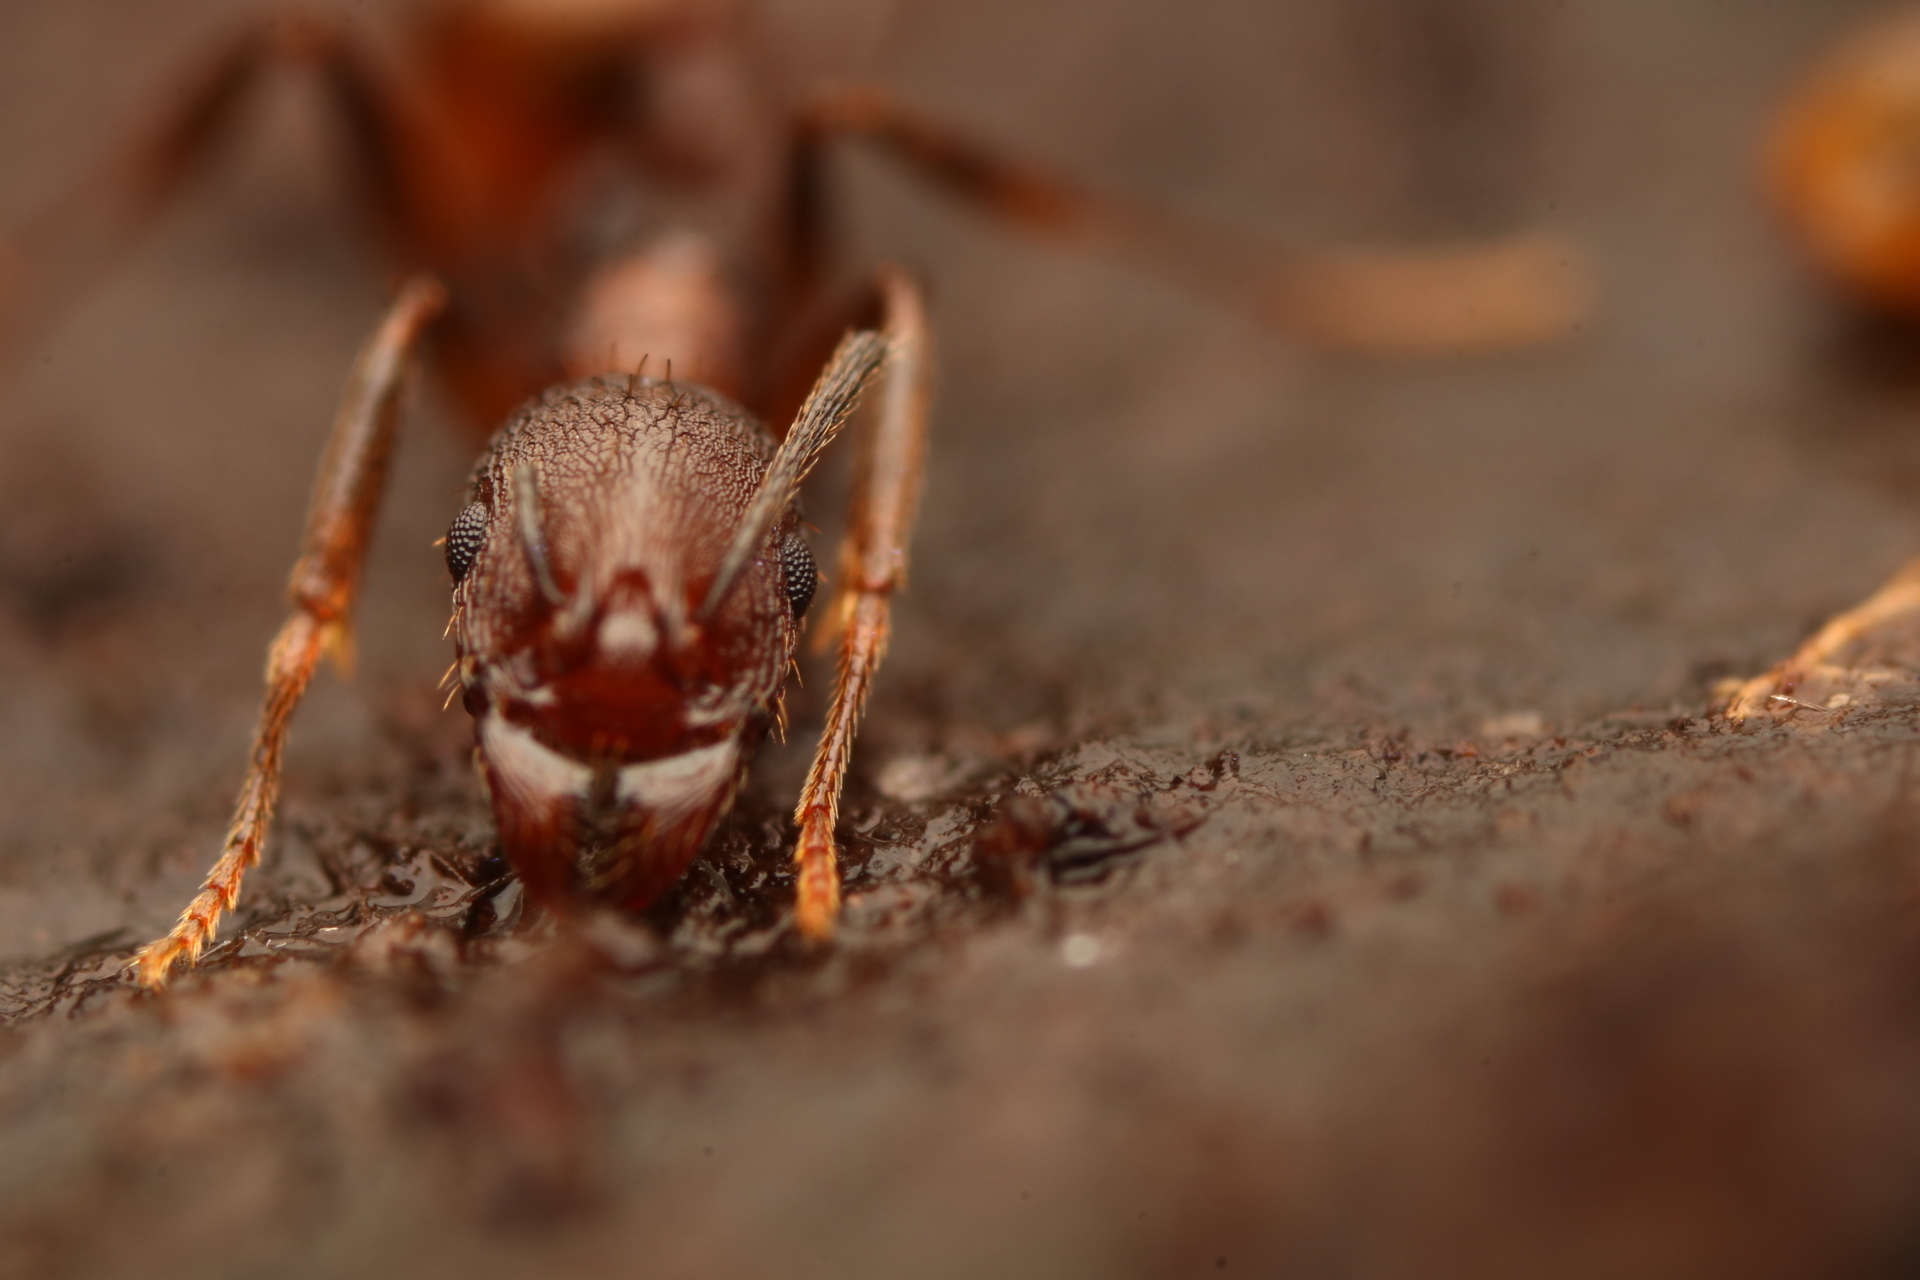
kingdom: Animalia
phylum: Arthropoda
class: Insecta
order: Hymenoptera
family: Formicidae
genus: Aphaenogaster
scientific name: Aphaenogaster fulva
